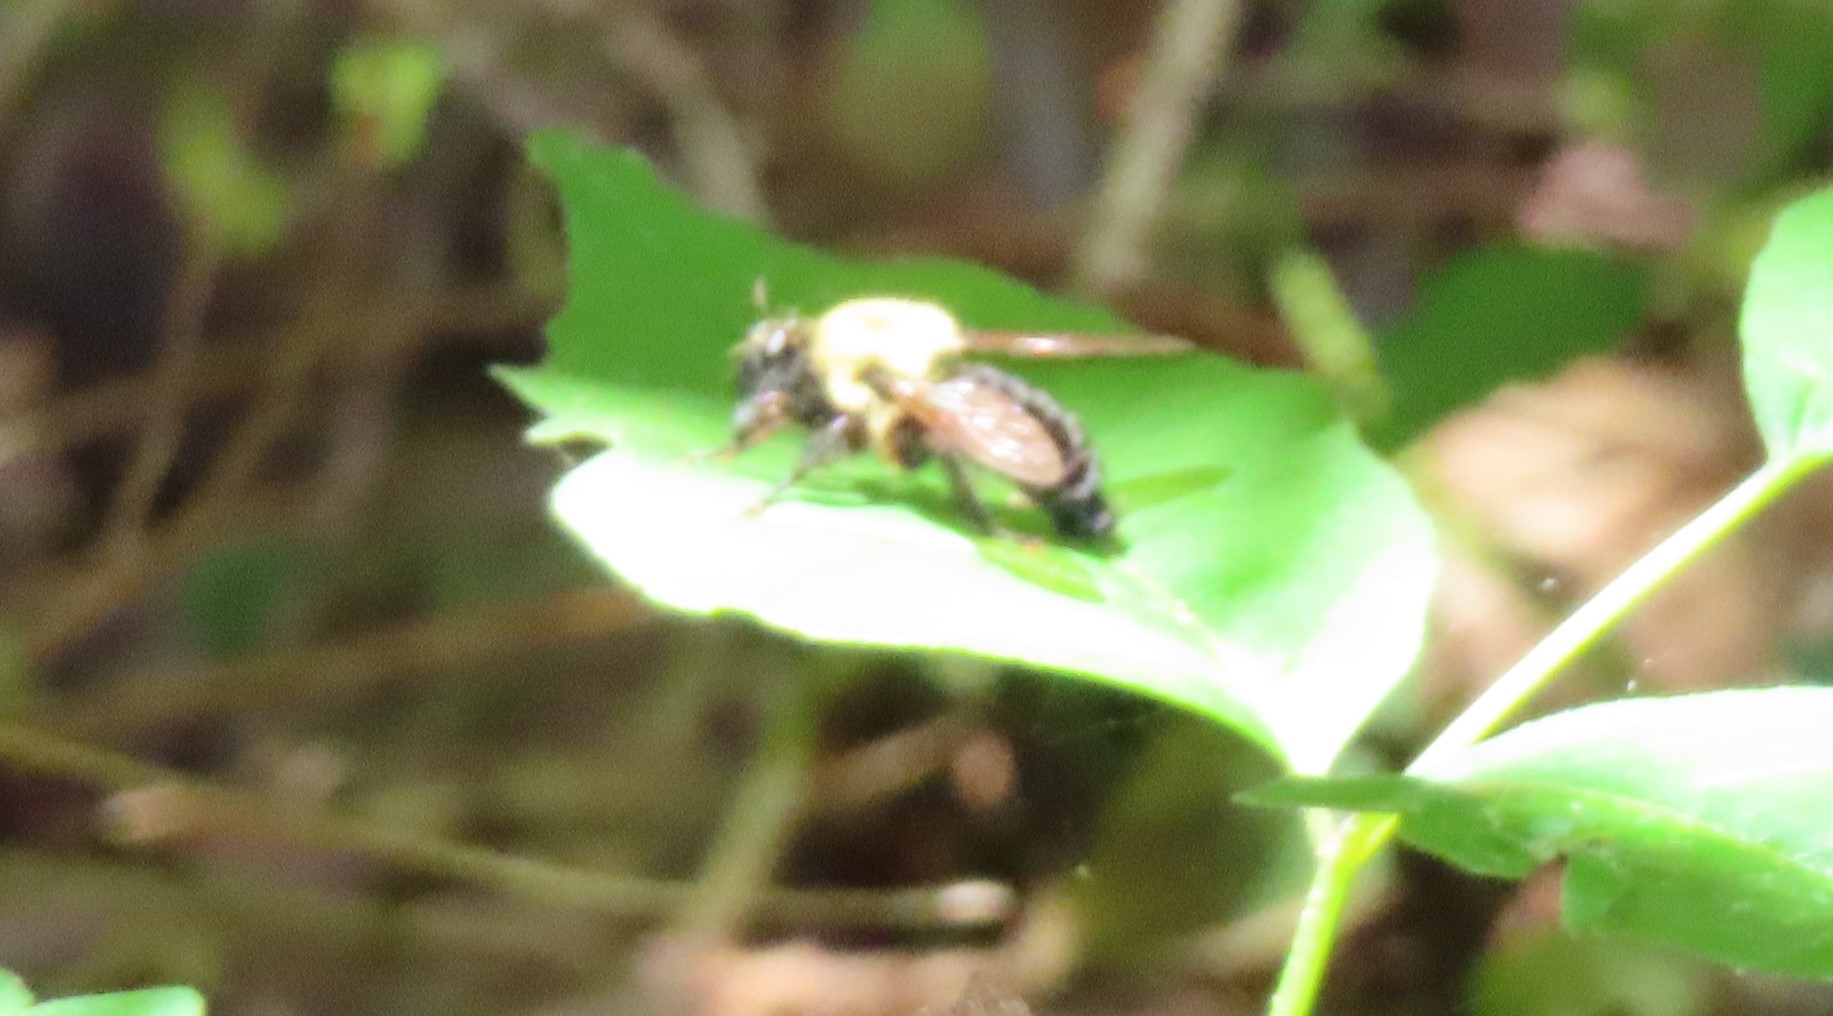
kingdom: Animalia
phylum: Arthropoda
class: Insecta
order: Diptera
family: Asilidae
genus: Laphria
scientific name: Laphria thoracica
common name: Bumble bee mimic robber fly
